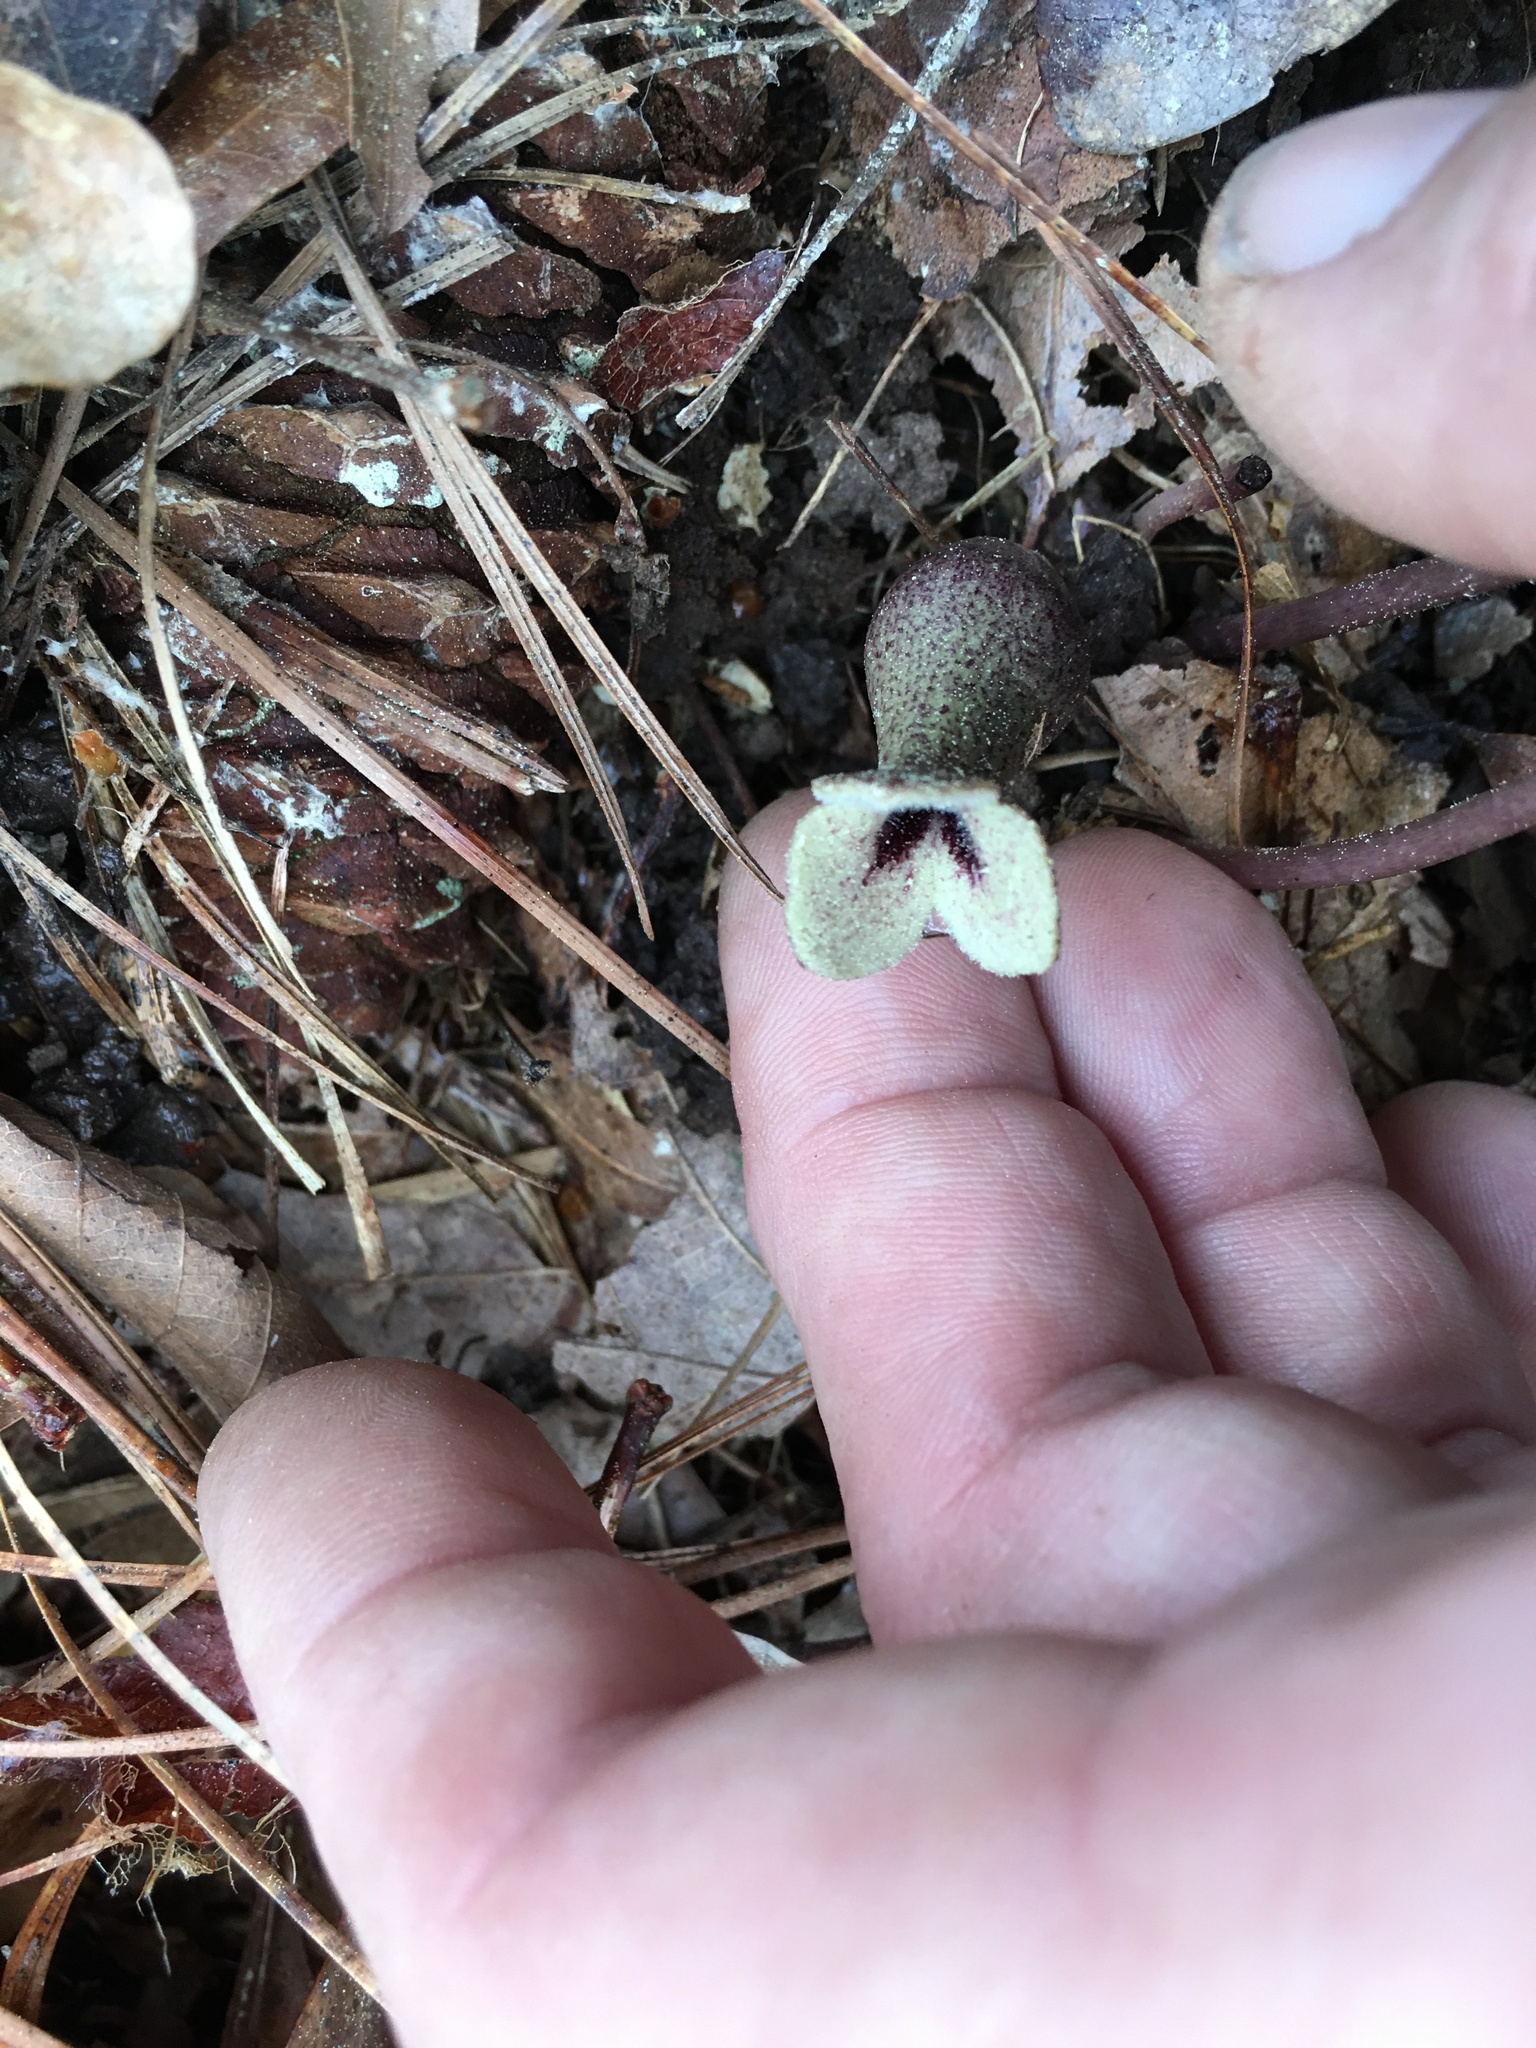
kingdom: Plantae
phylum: Tracheophyta
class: Magnoliopsida
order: Piperales
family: Aristolochiaceae
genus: Hexastylis
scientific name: Hexastylis arifolia
